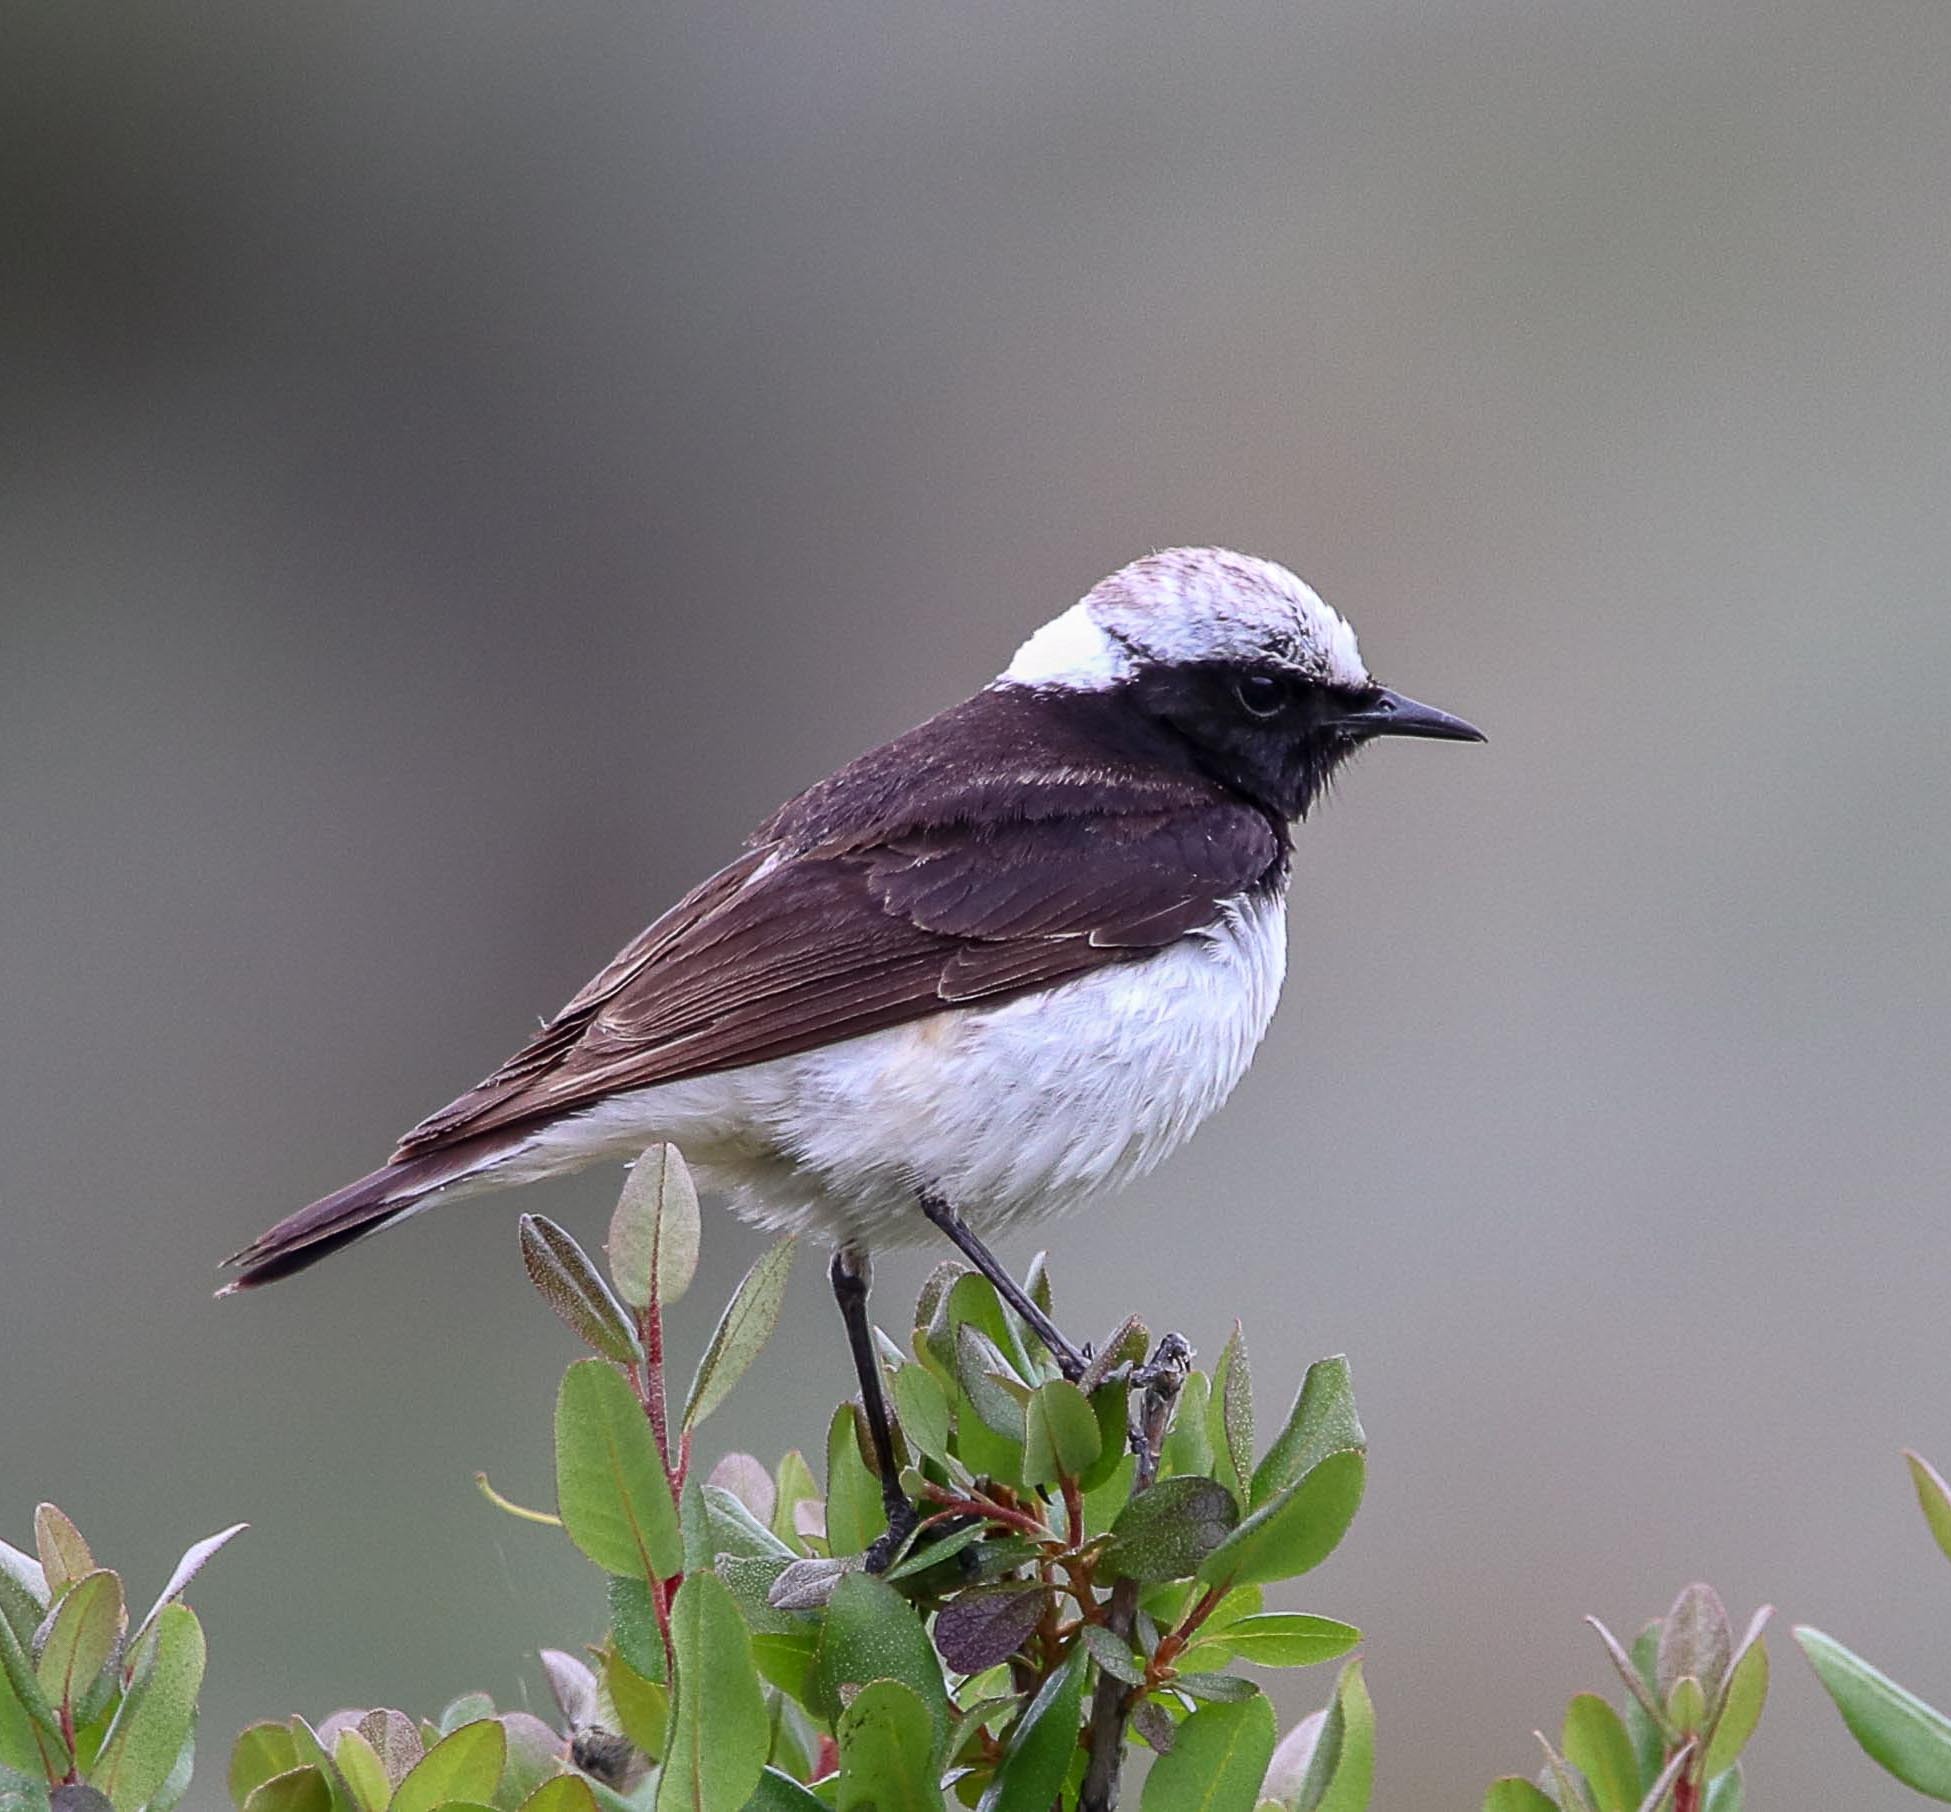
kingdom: Animalia
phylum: Chordata
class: Aves
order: Passeriformes
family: Muscicapidae
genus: Oenanthe
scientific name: Oenanthe pleschanka
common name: Pied wheatear
